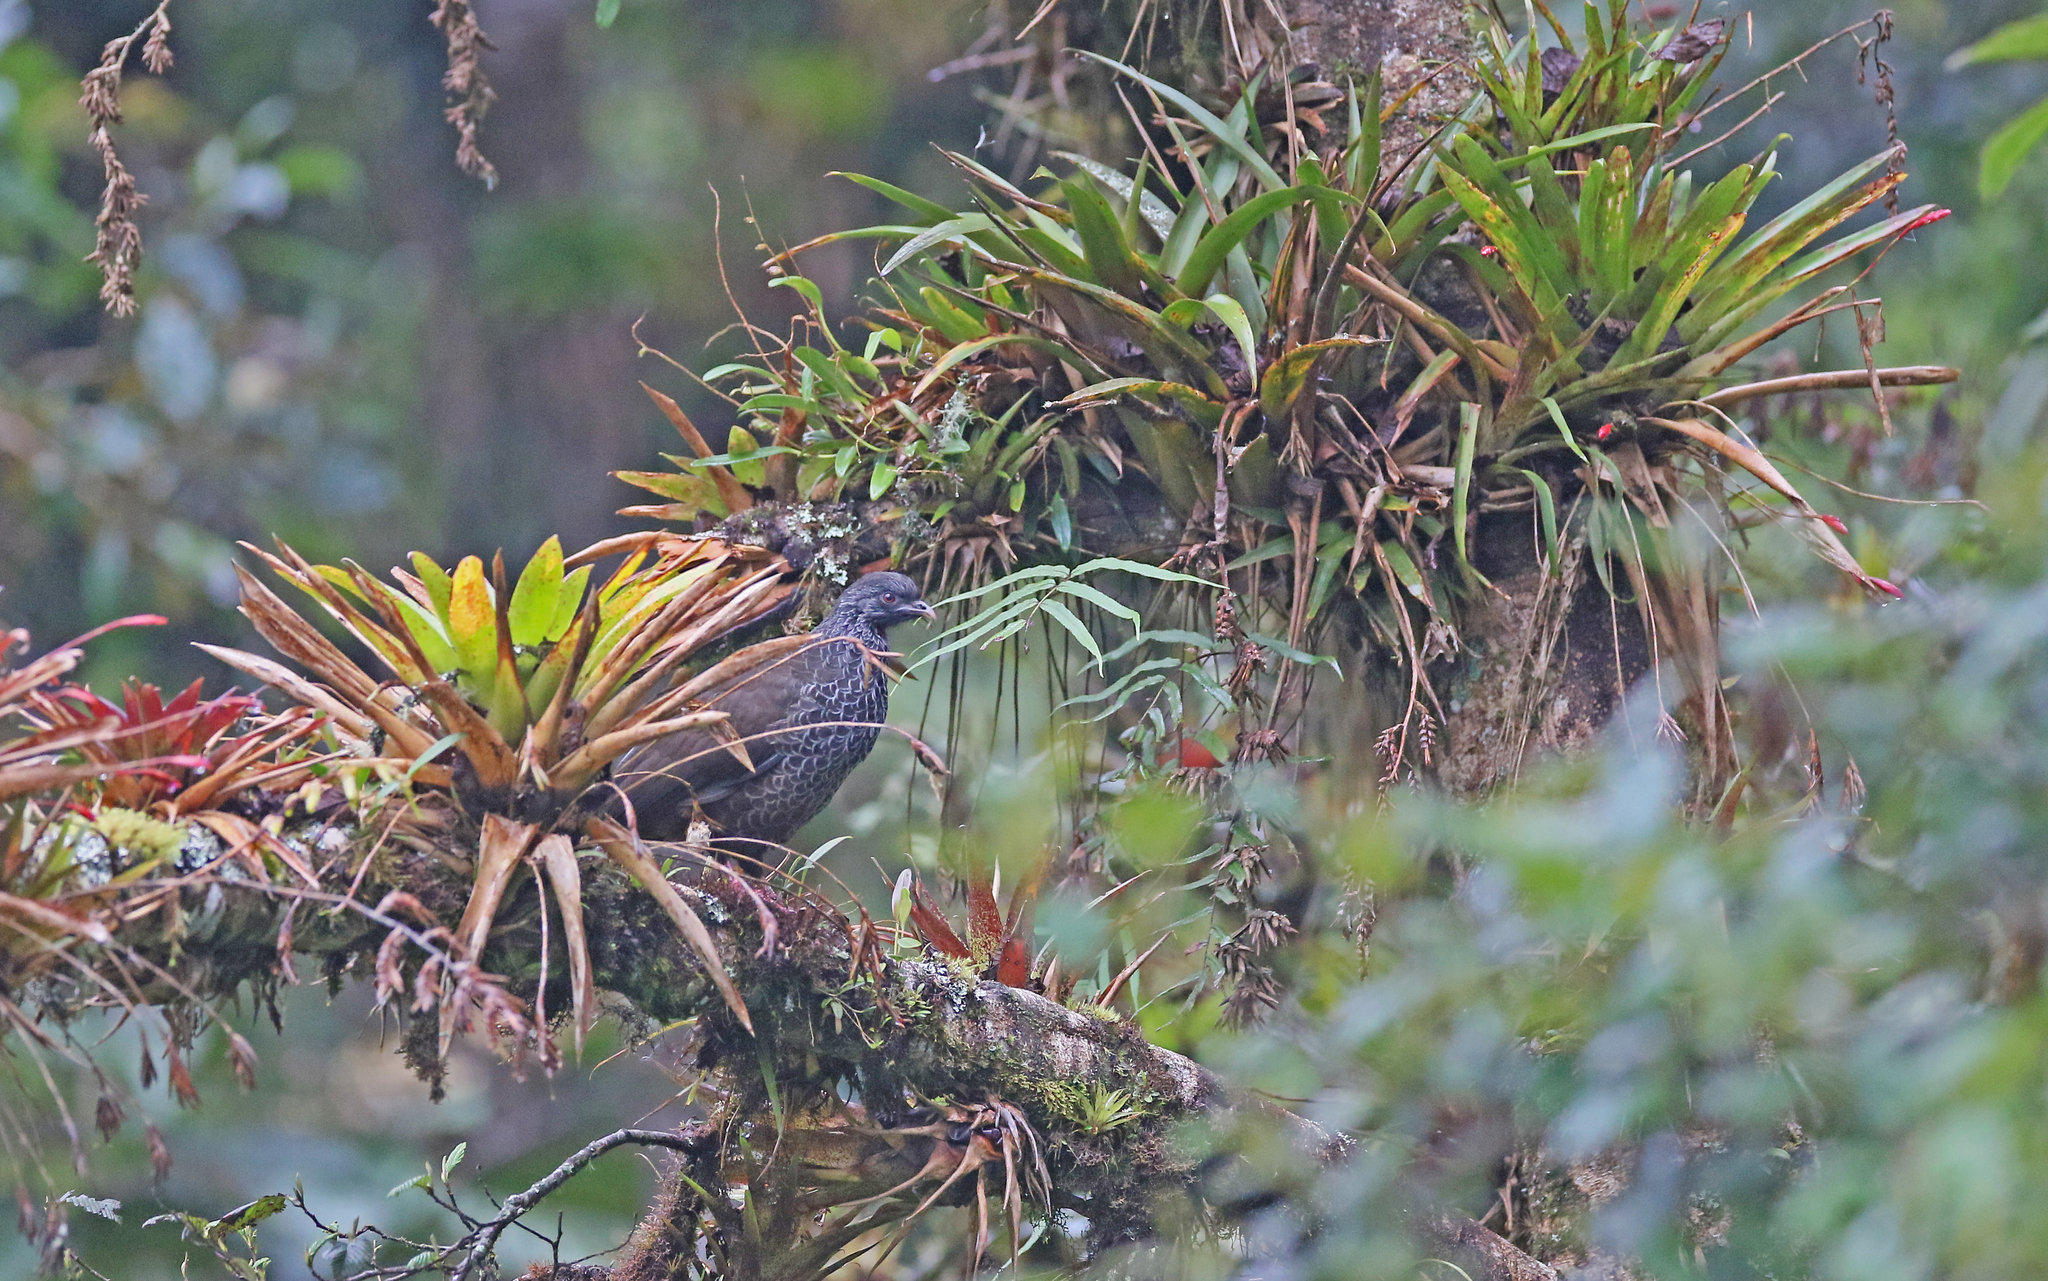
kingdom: Animalia
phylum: Chordata
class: Aves
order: Galliformes
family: Cracidae
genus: Penelope
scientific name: Penelope montagnii
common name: Andean guan
